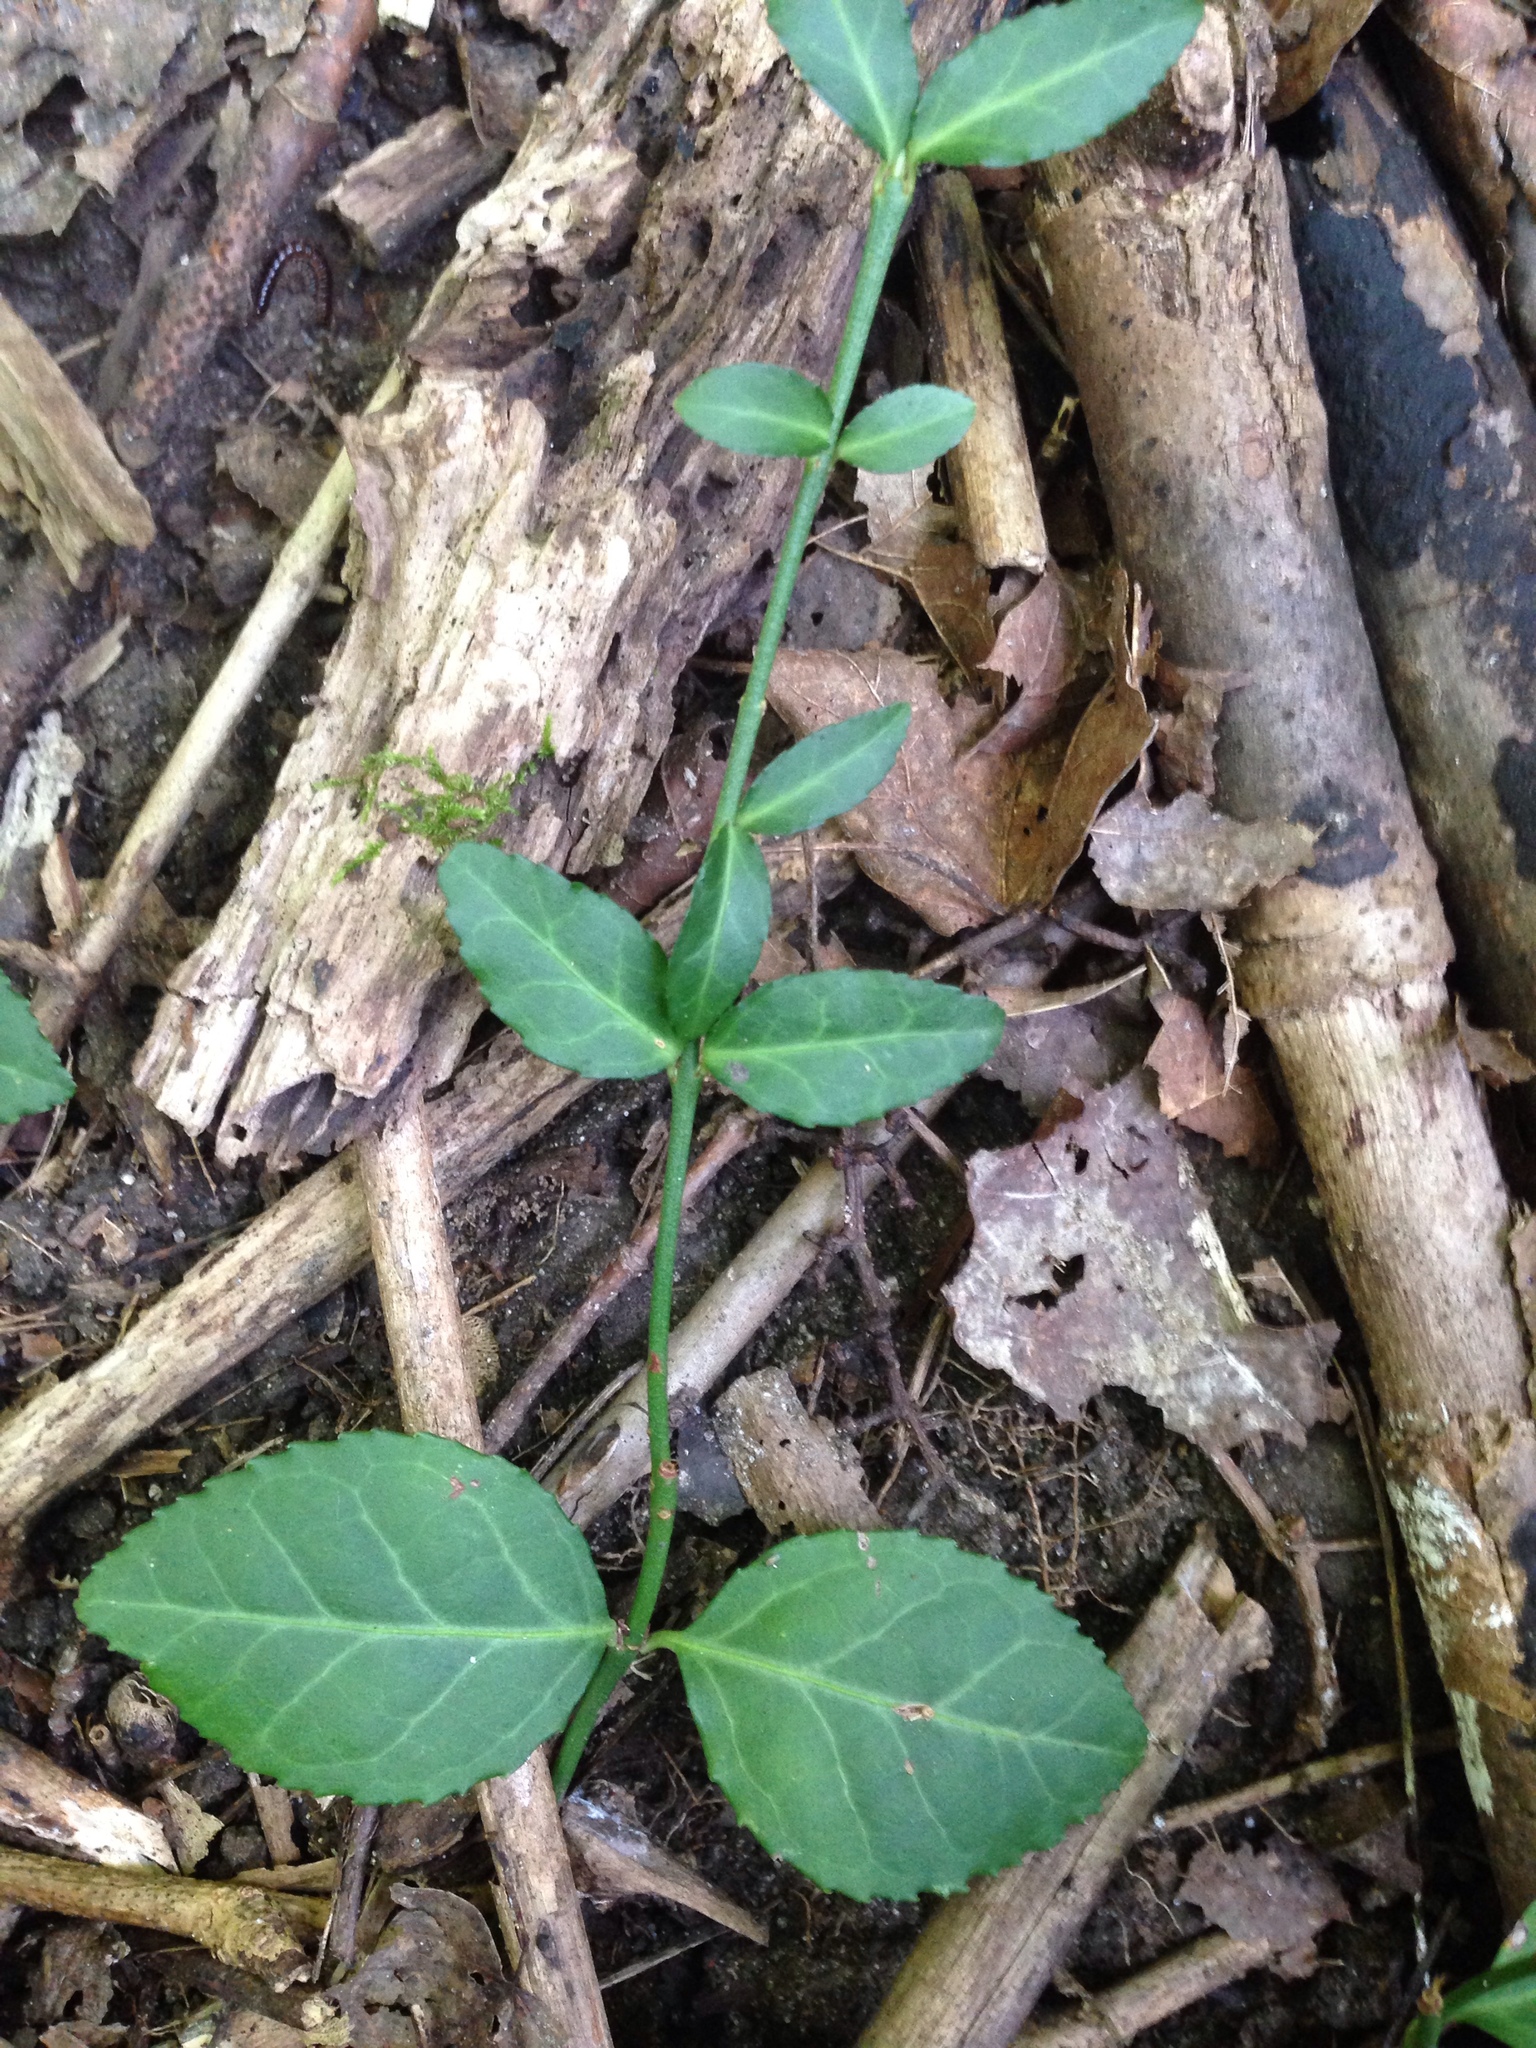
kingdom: Plantae
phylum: Tracheophyta
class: Magnoliopsida
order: Celastrales
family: Celastraceae
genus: Euonymus
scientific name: Euonymus fortunei
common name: Climbing euonymus
